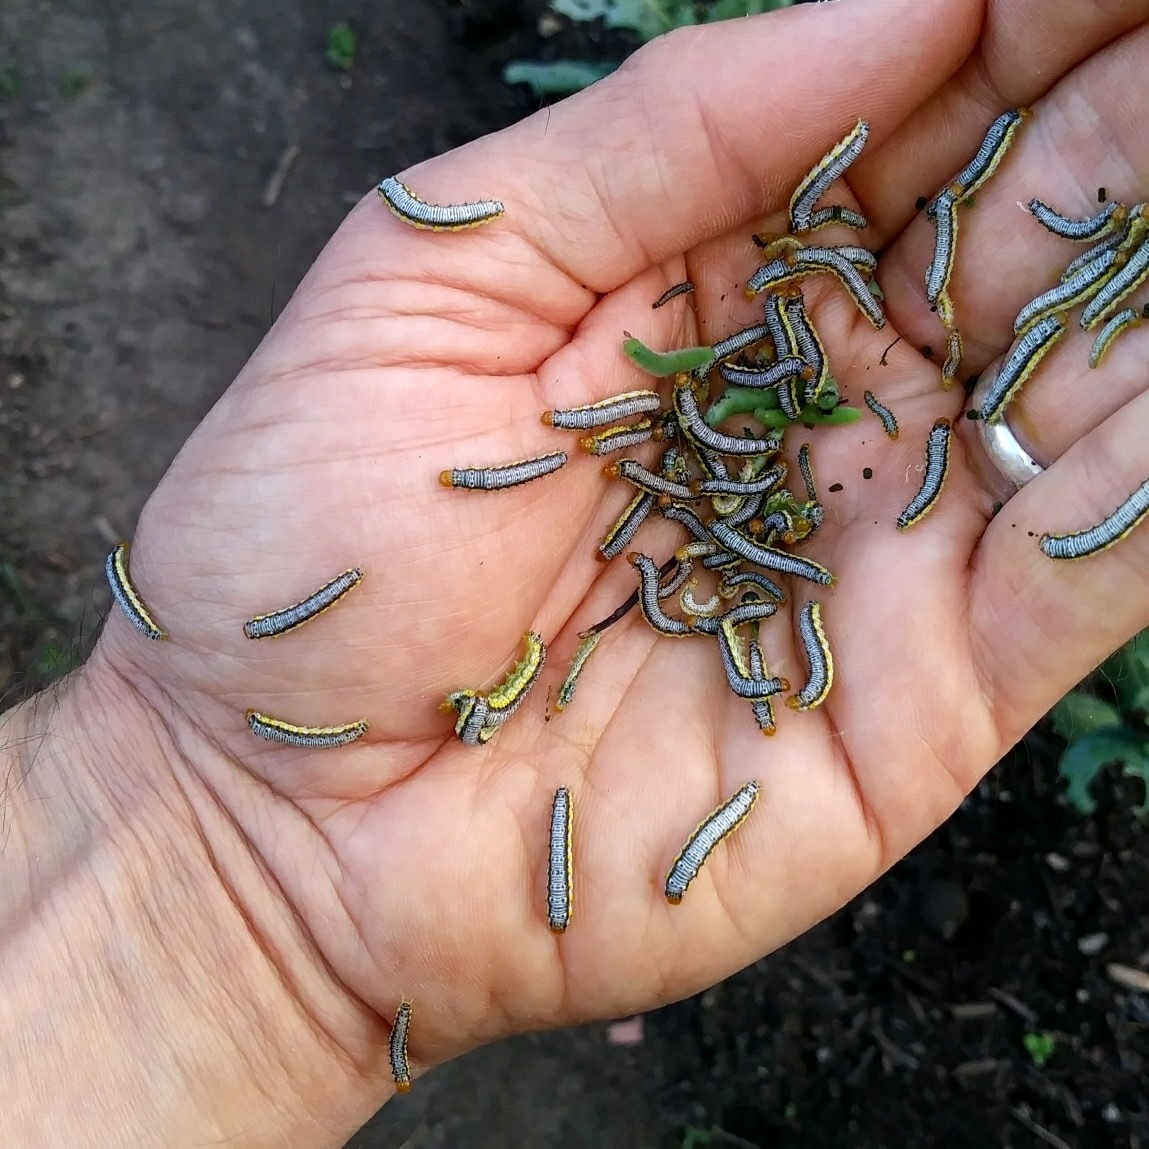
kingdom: Animalia
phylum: Arthropoda
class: Insecta
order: Lepidoptera
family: Crambidae
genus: Evergestis
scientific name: Evergestis rimosalis
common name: Cross-striped cabbageworm moth
